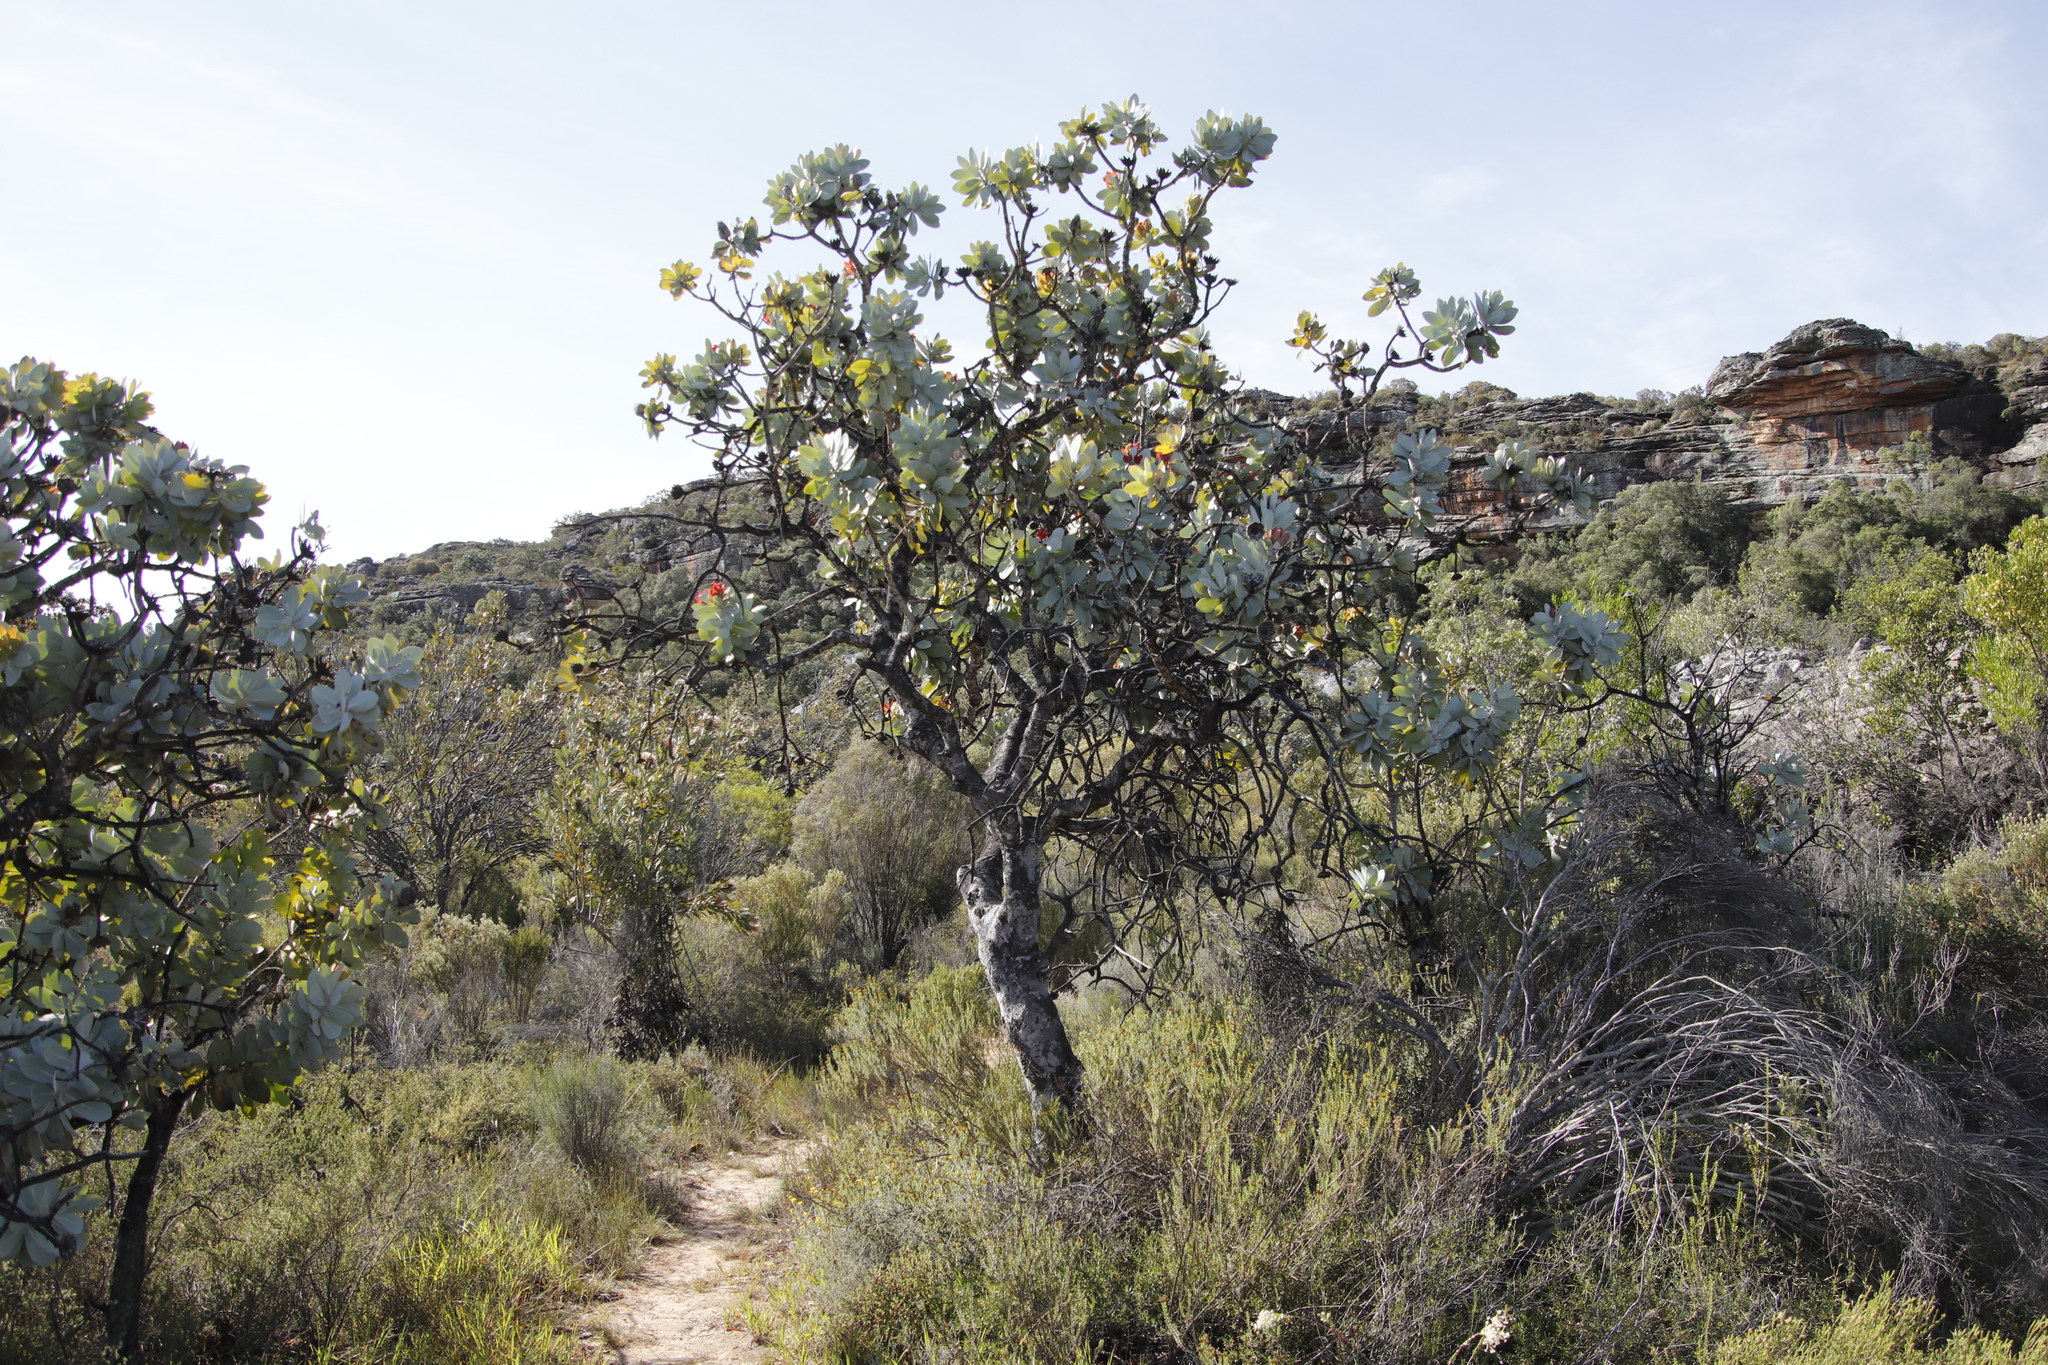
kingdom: Plantae
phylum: Tracheophyta
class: Magnoliopsida
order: Proteales
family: Proteaceae
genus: Protea
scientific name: Protea nitida
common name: Tree protea
